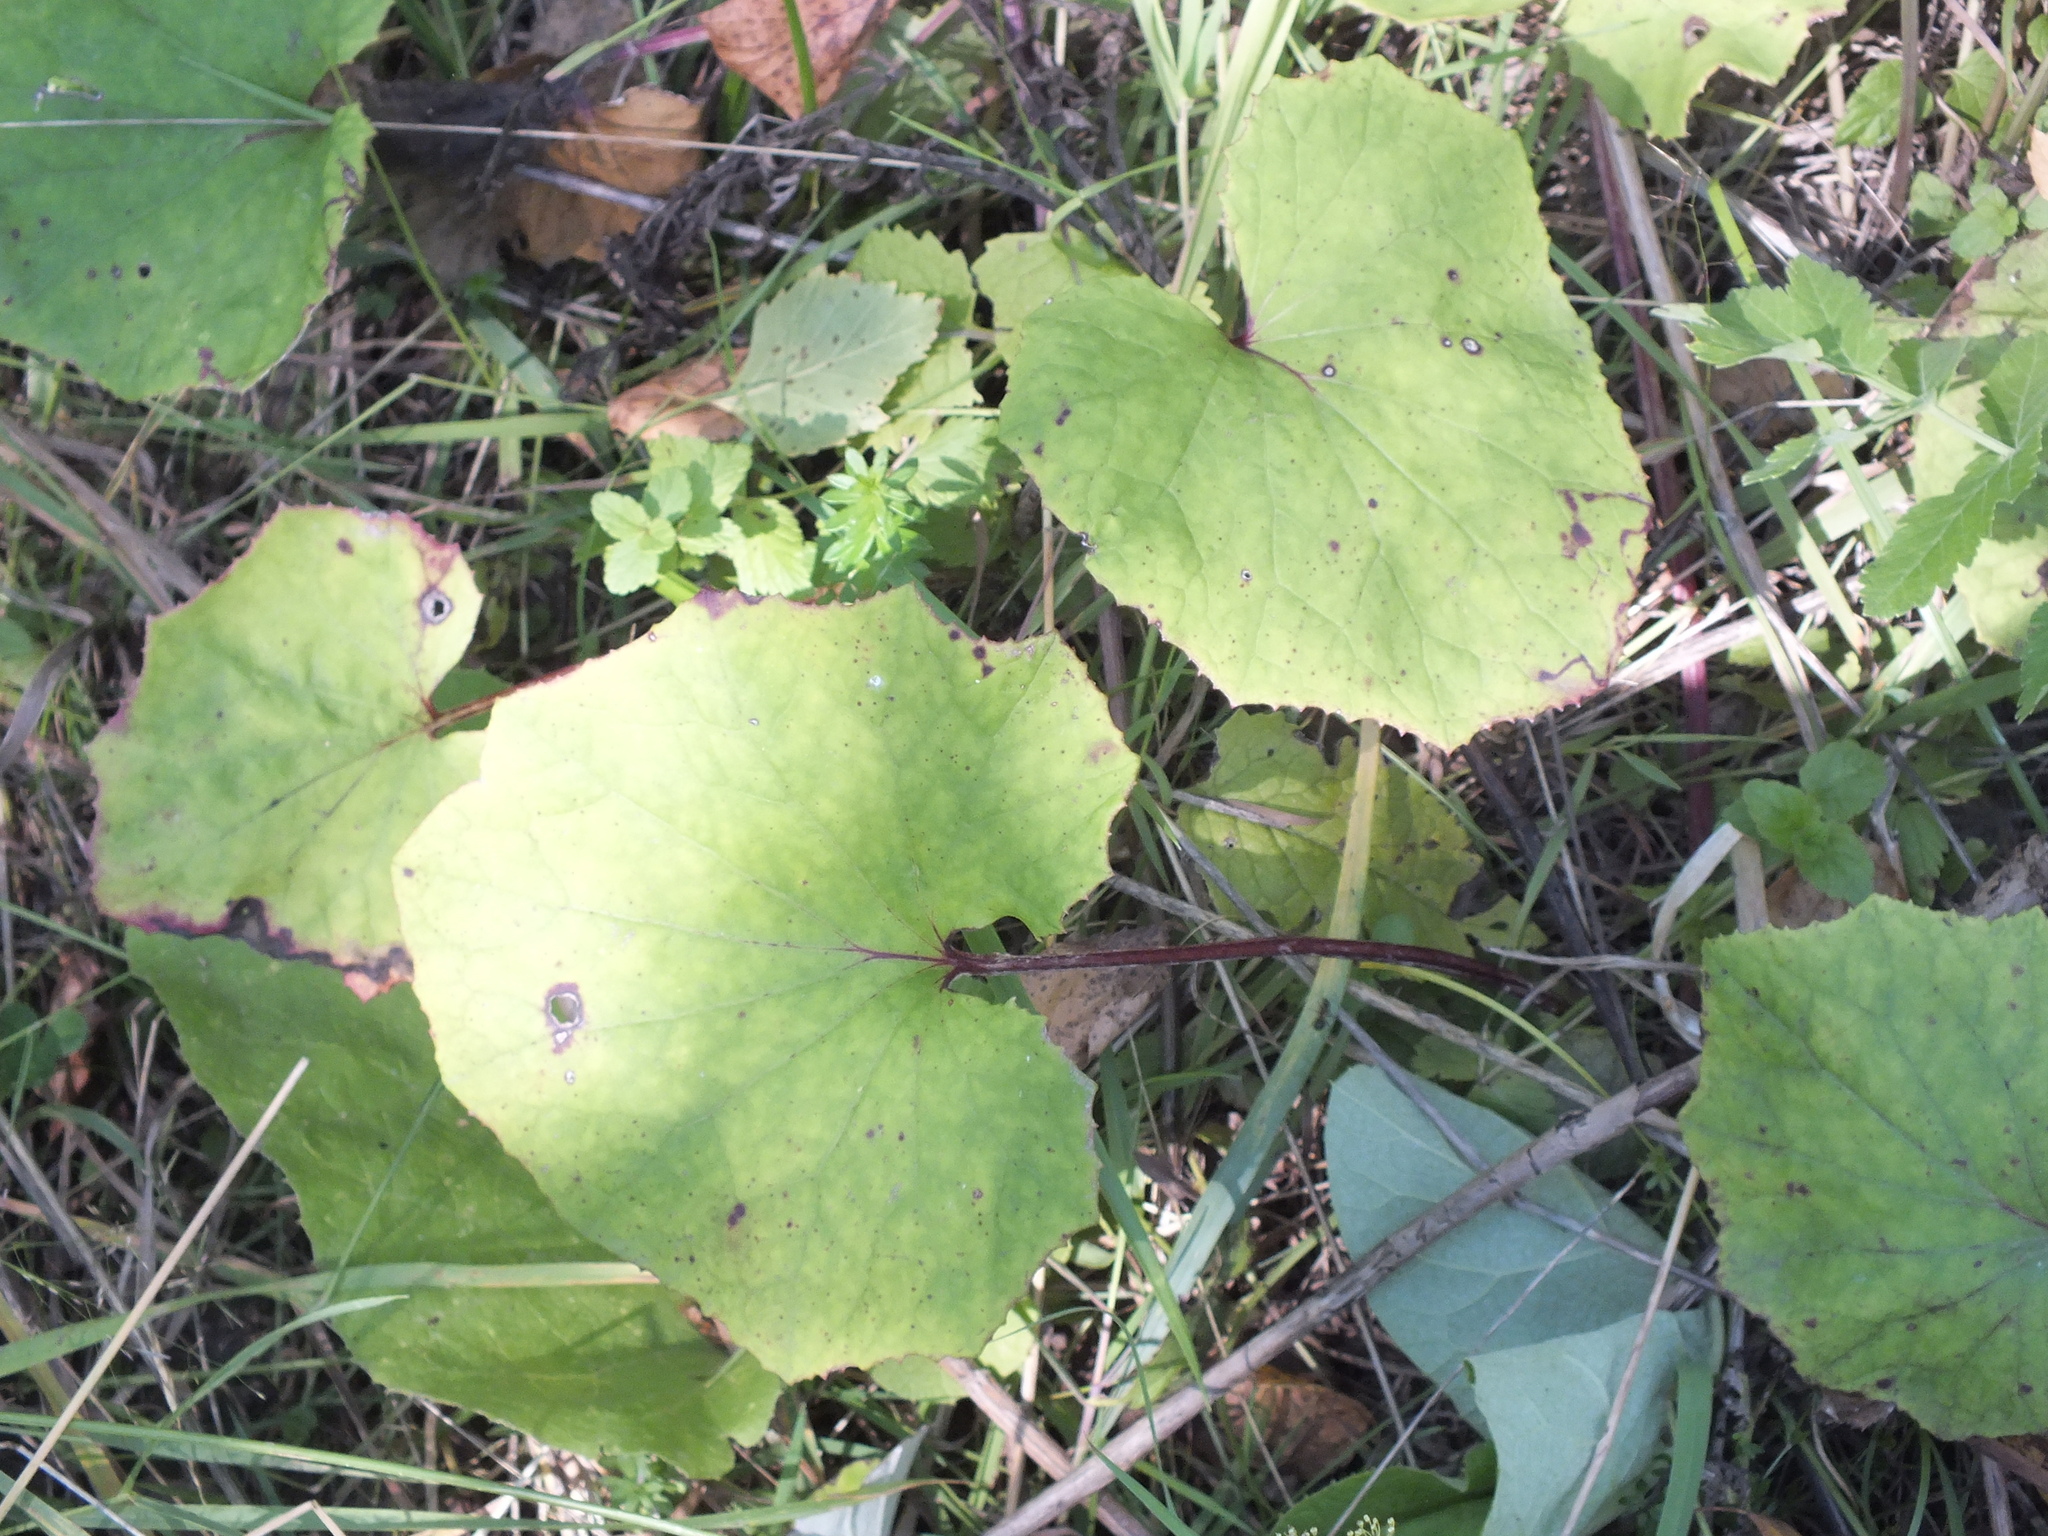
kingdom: Plantae
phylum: Tracheophyta
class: Magnoliopsida
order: Asterales
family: Asteraceae
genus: Tussilago
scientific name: Tussilago farfara
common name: Coltsfoot
